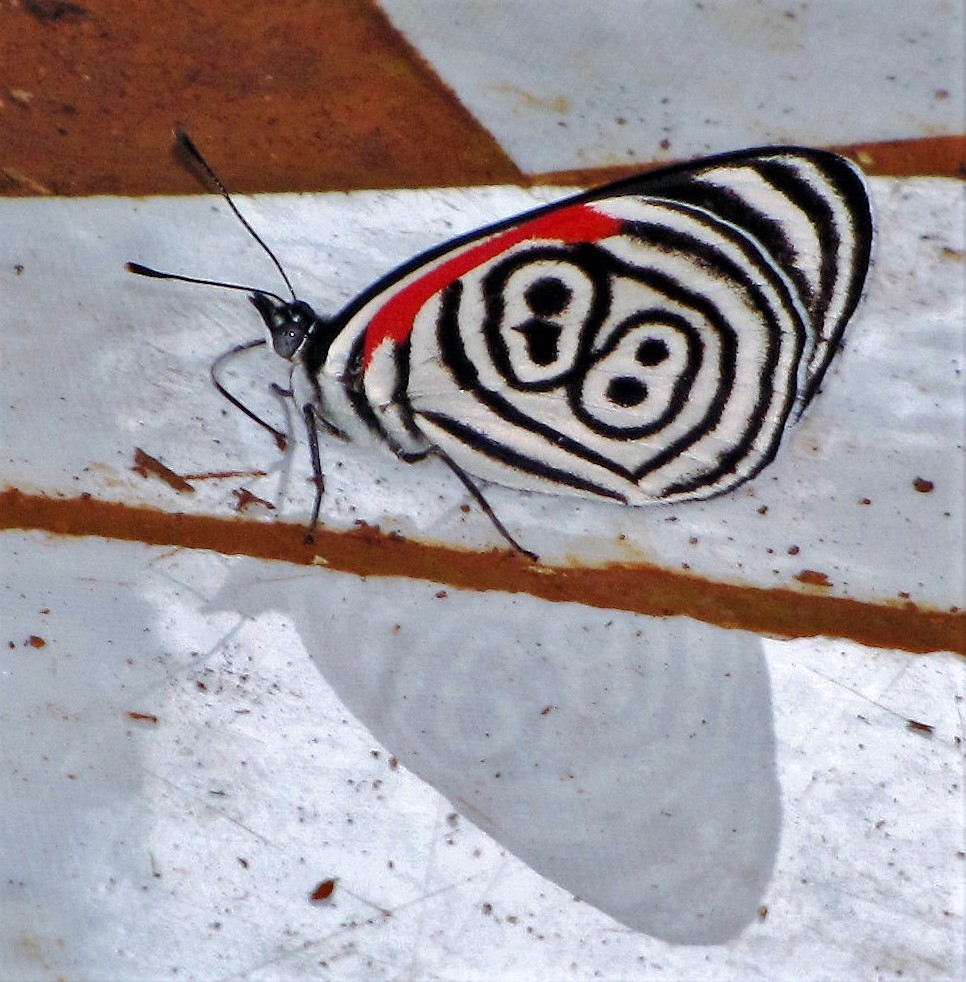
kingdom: Animalia
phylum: Arthropoda
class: Insecta
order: Lepidoptera
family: Nymphalidae
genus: Diaethria
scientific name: Diaethria clymena
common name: Widespread eighty-eight
